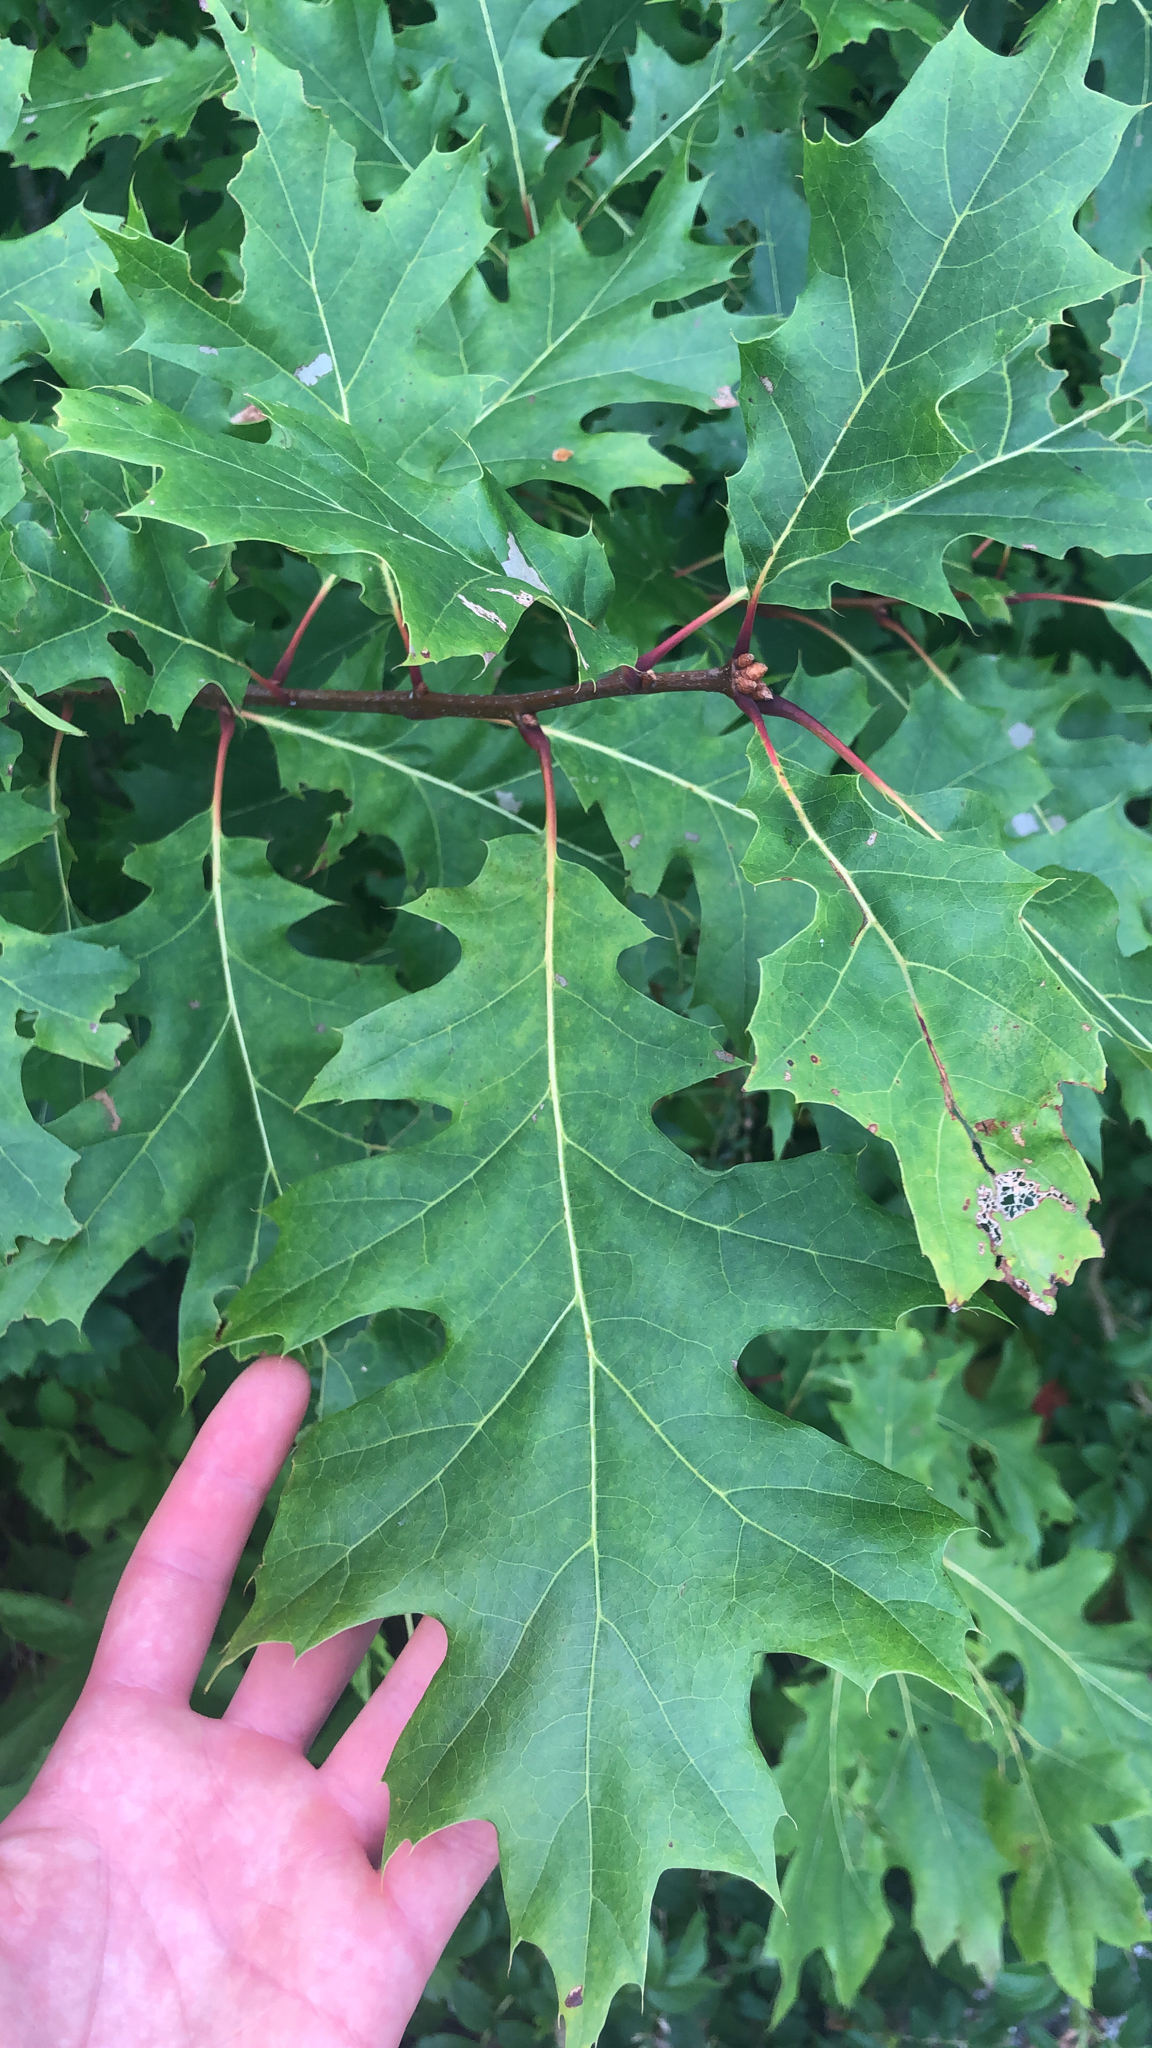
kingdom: Plantae
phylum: Tracheophyta
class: Magnoliopsida
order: Fagales
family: Fagaceae
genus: Quercus
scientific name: Quercus rubra
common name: Red oak
